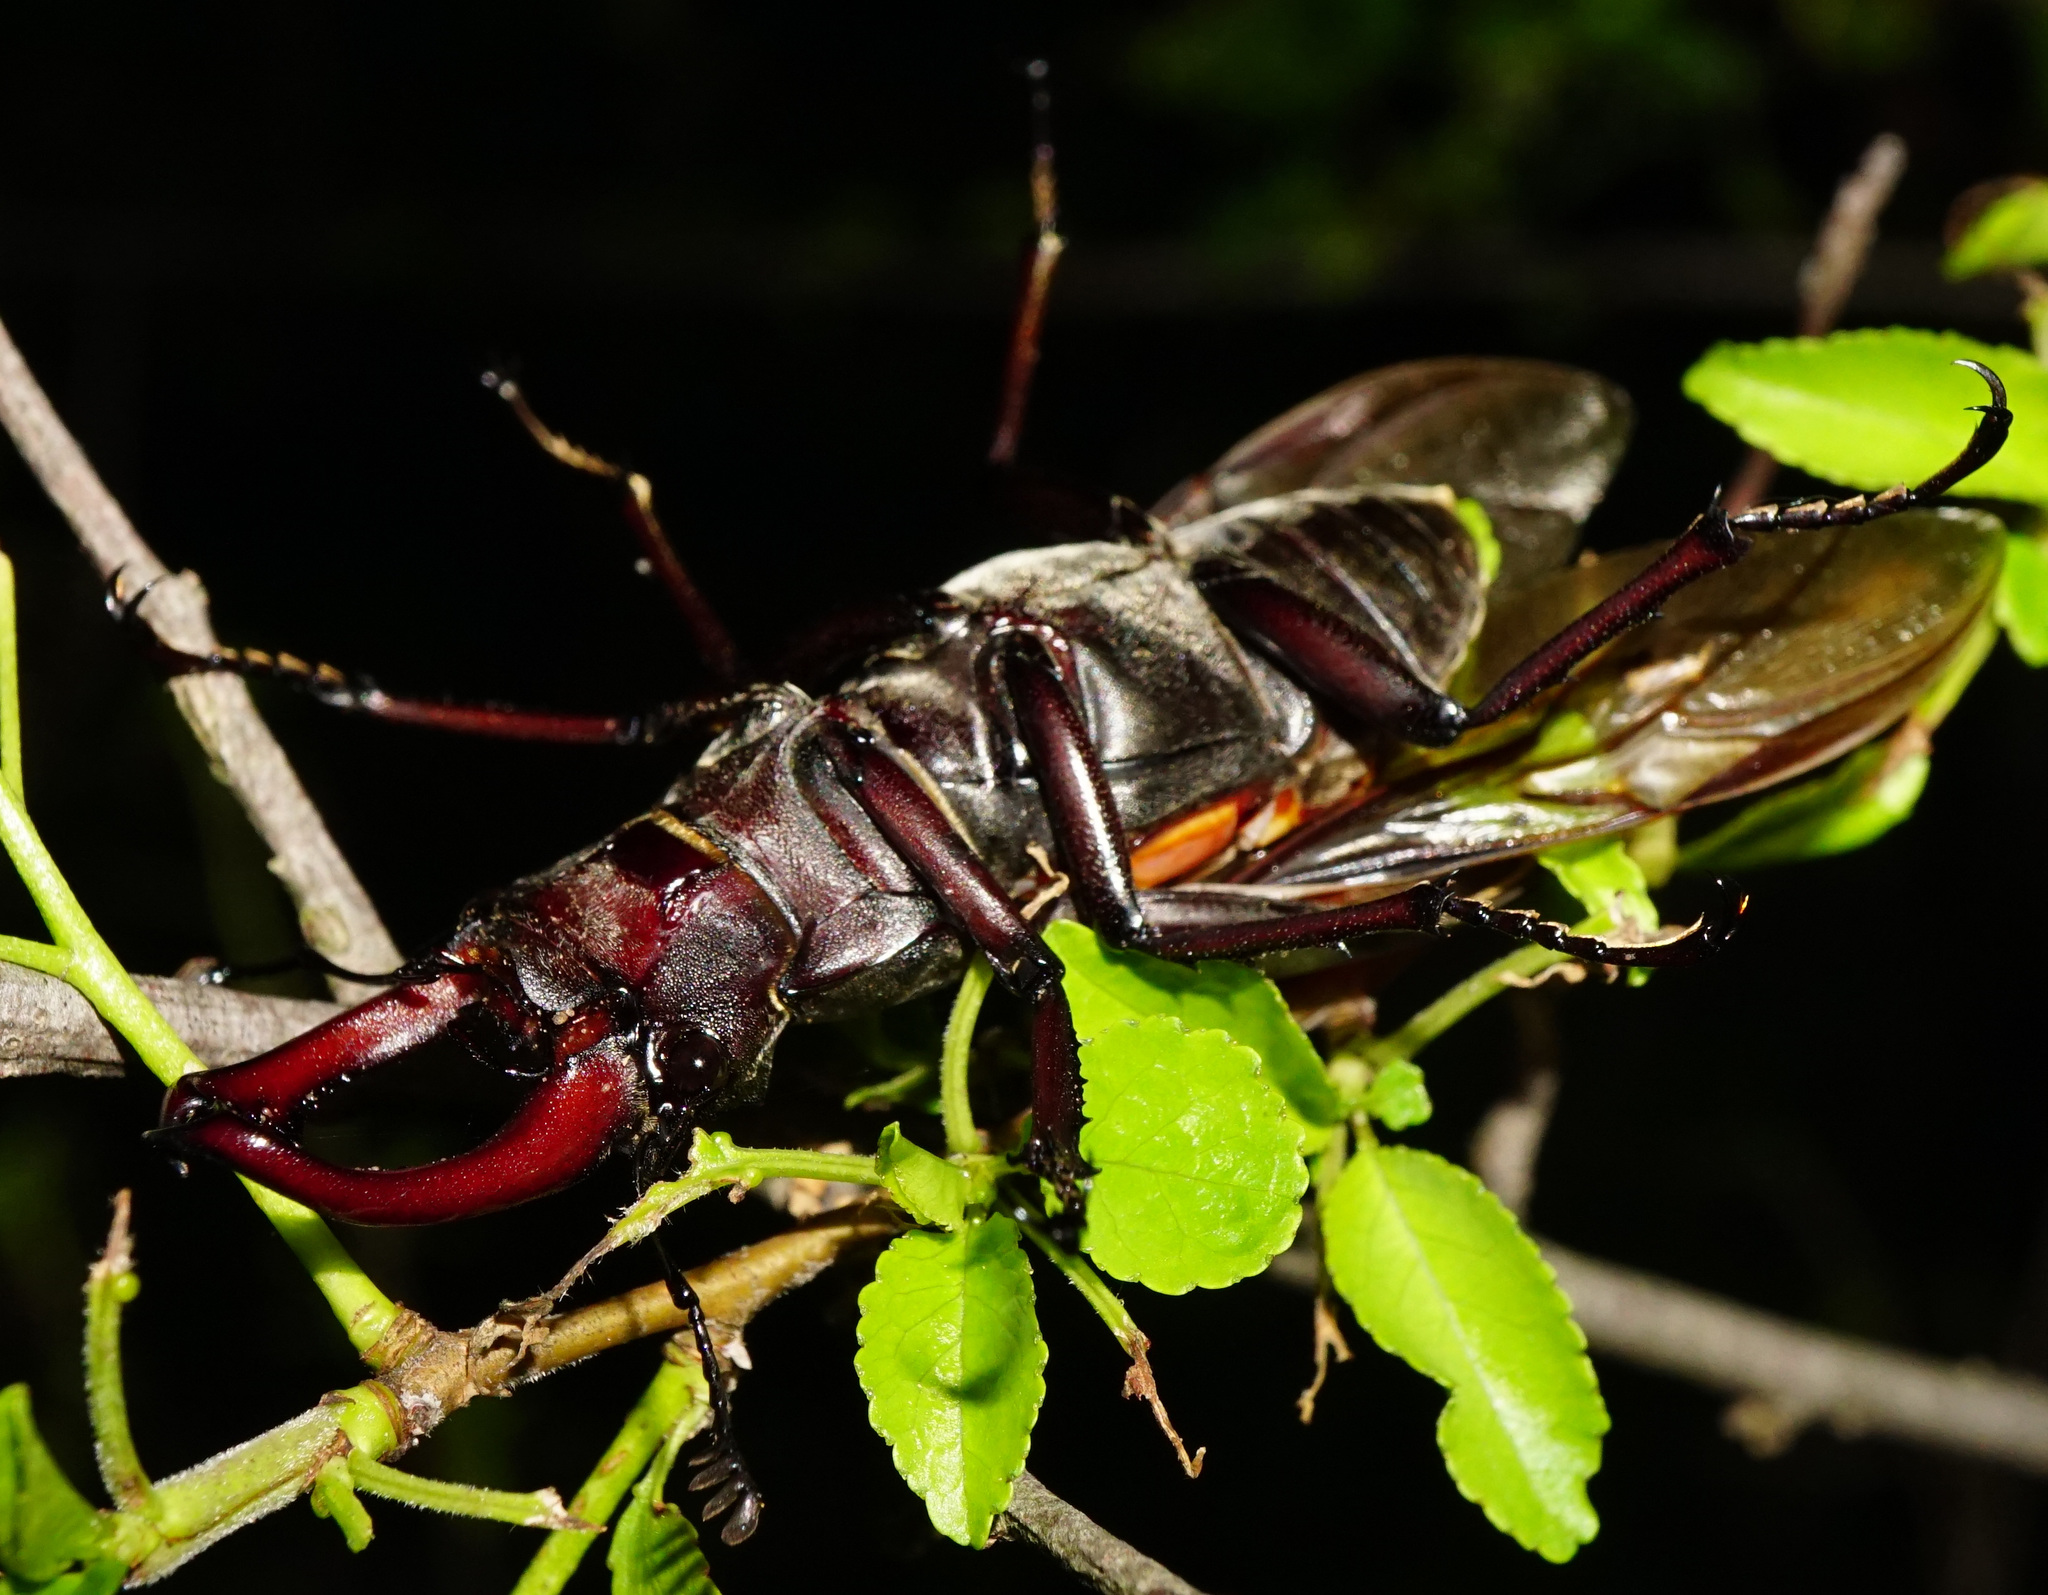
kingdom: Animalia
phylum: Arthropoda
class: Insecta
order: Coleoptera
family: Lucanidae
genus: Lucanus
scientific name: Lucanus cervus
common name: Stag beetle
